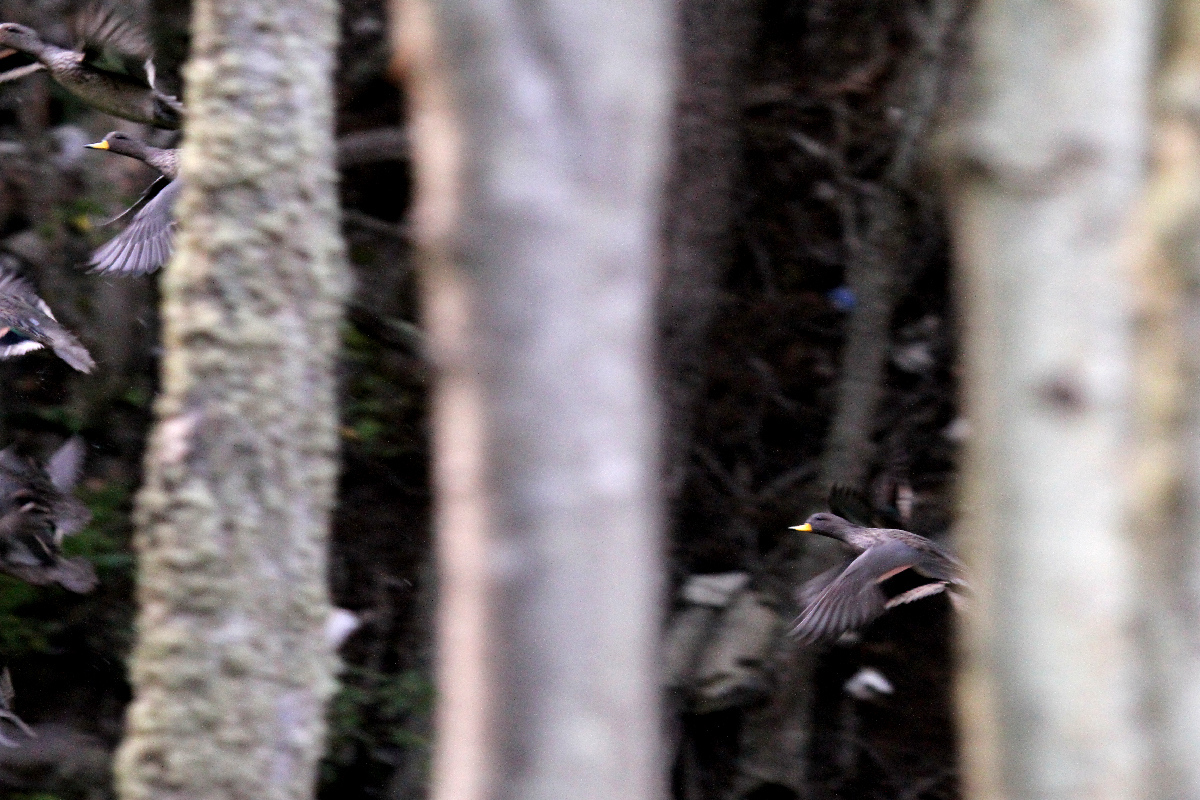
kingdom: Animalia
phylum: Chordata
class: Aves
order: Anseriformes
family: Anatidae
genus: Anas
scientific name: Anas flavirostris
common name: Yellow-billed teal
